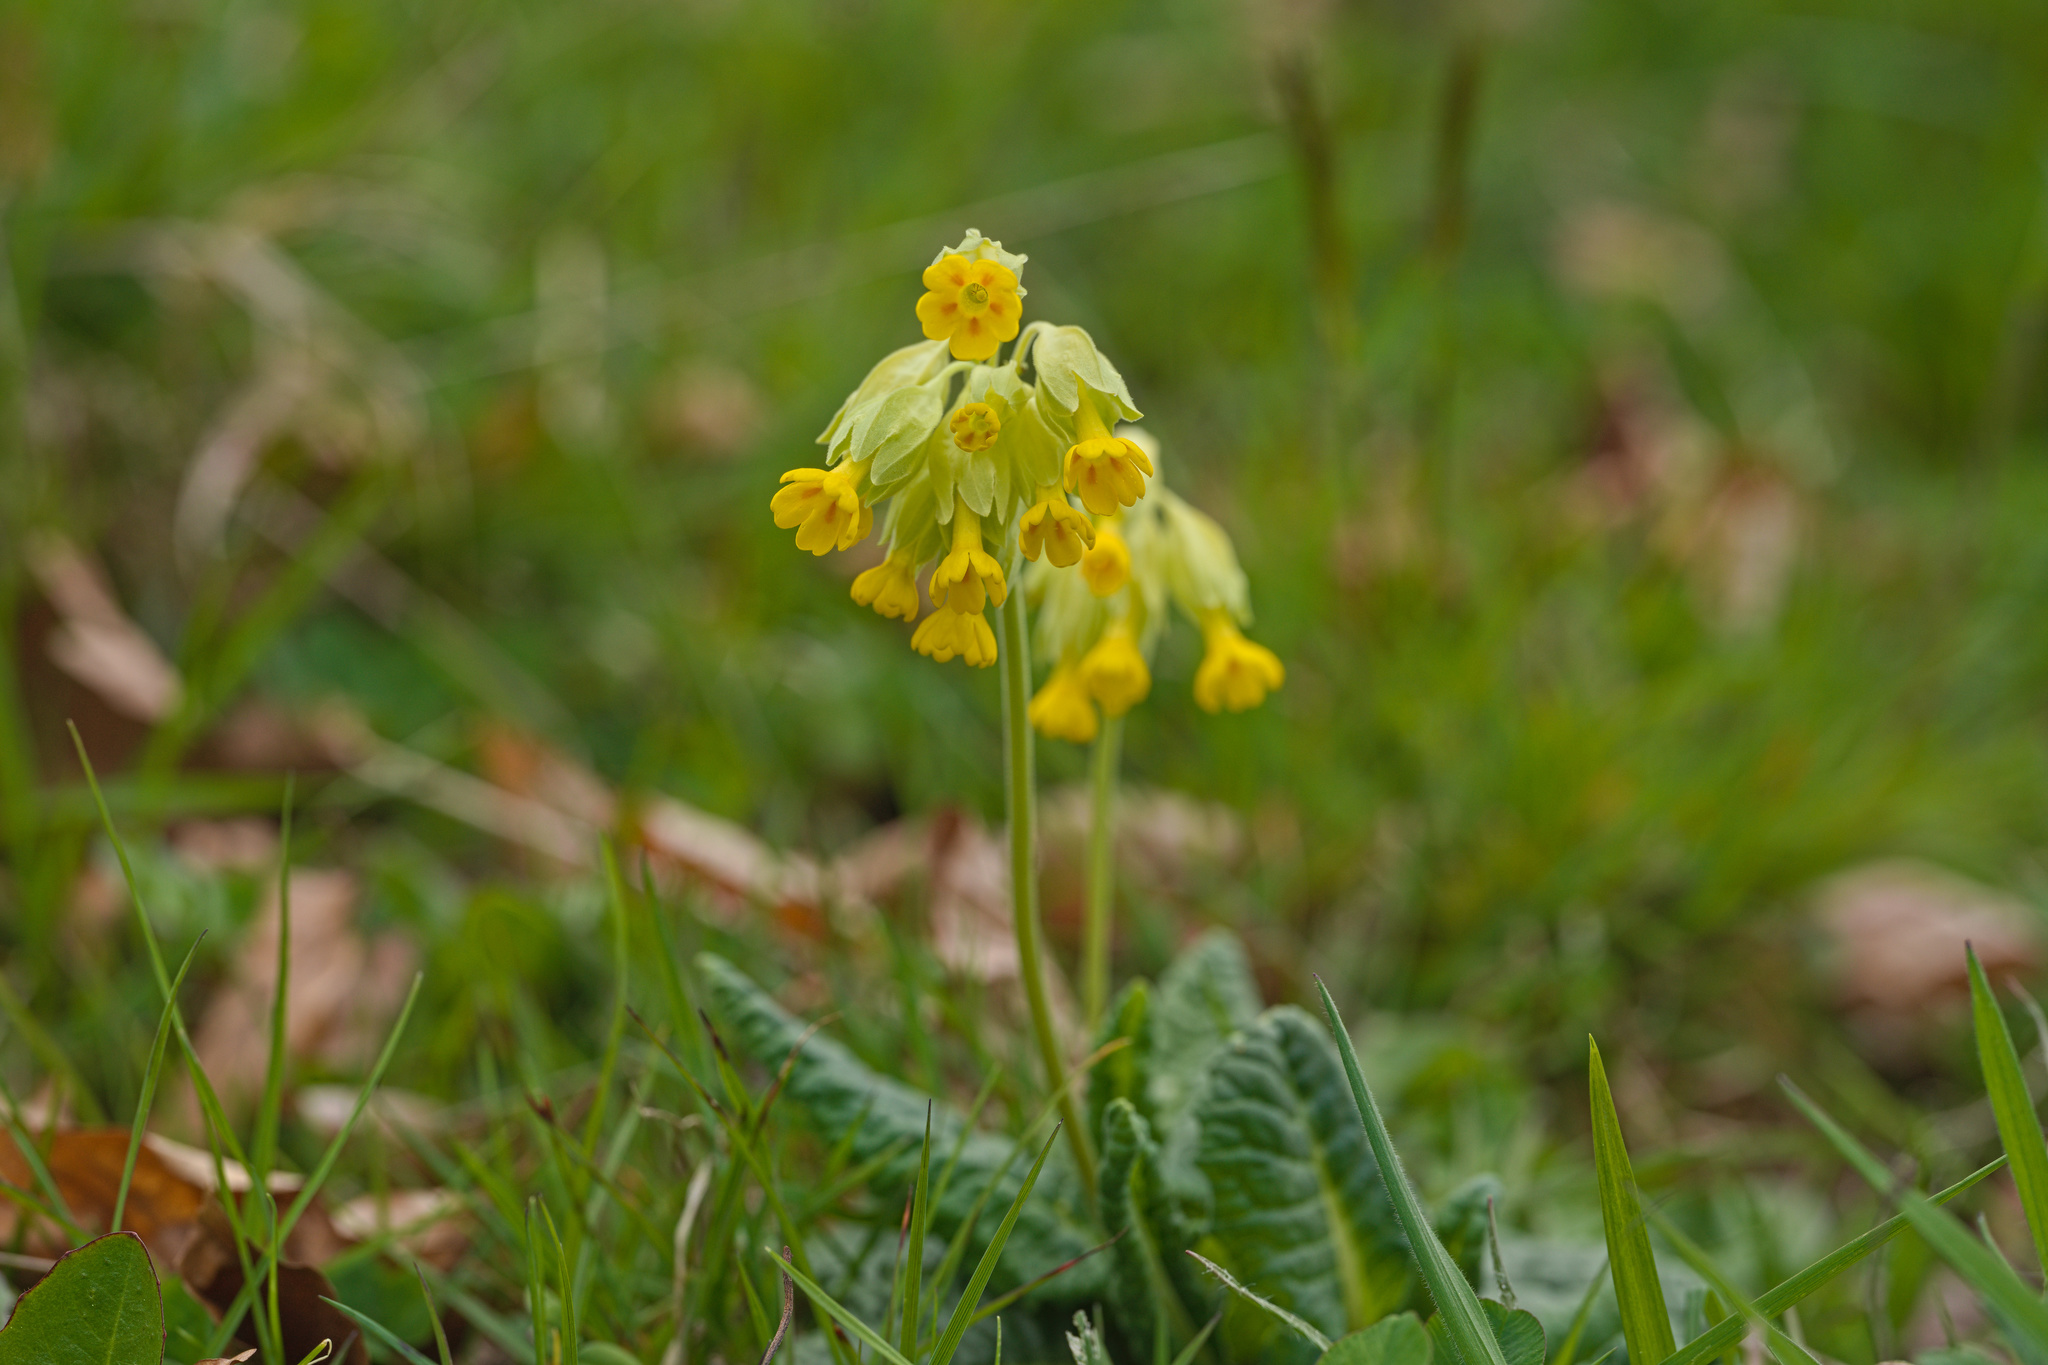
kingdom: Plantae
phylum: Tracheophyta
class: Magnoliopsida
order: Ericales
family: Primulaceae
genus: Primula
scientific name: Primula veris
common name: Cowslip
